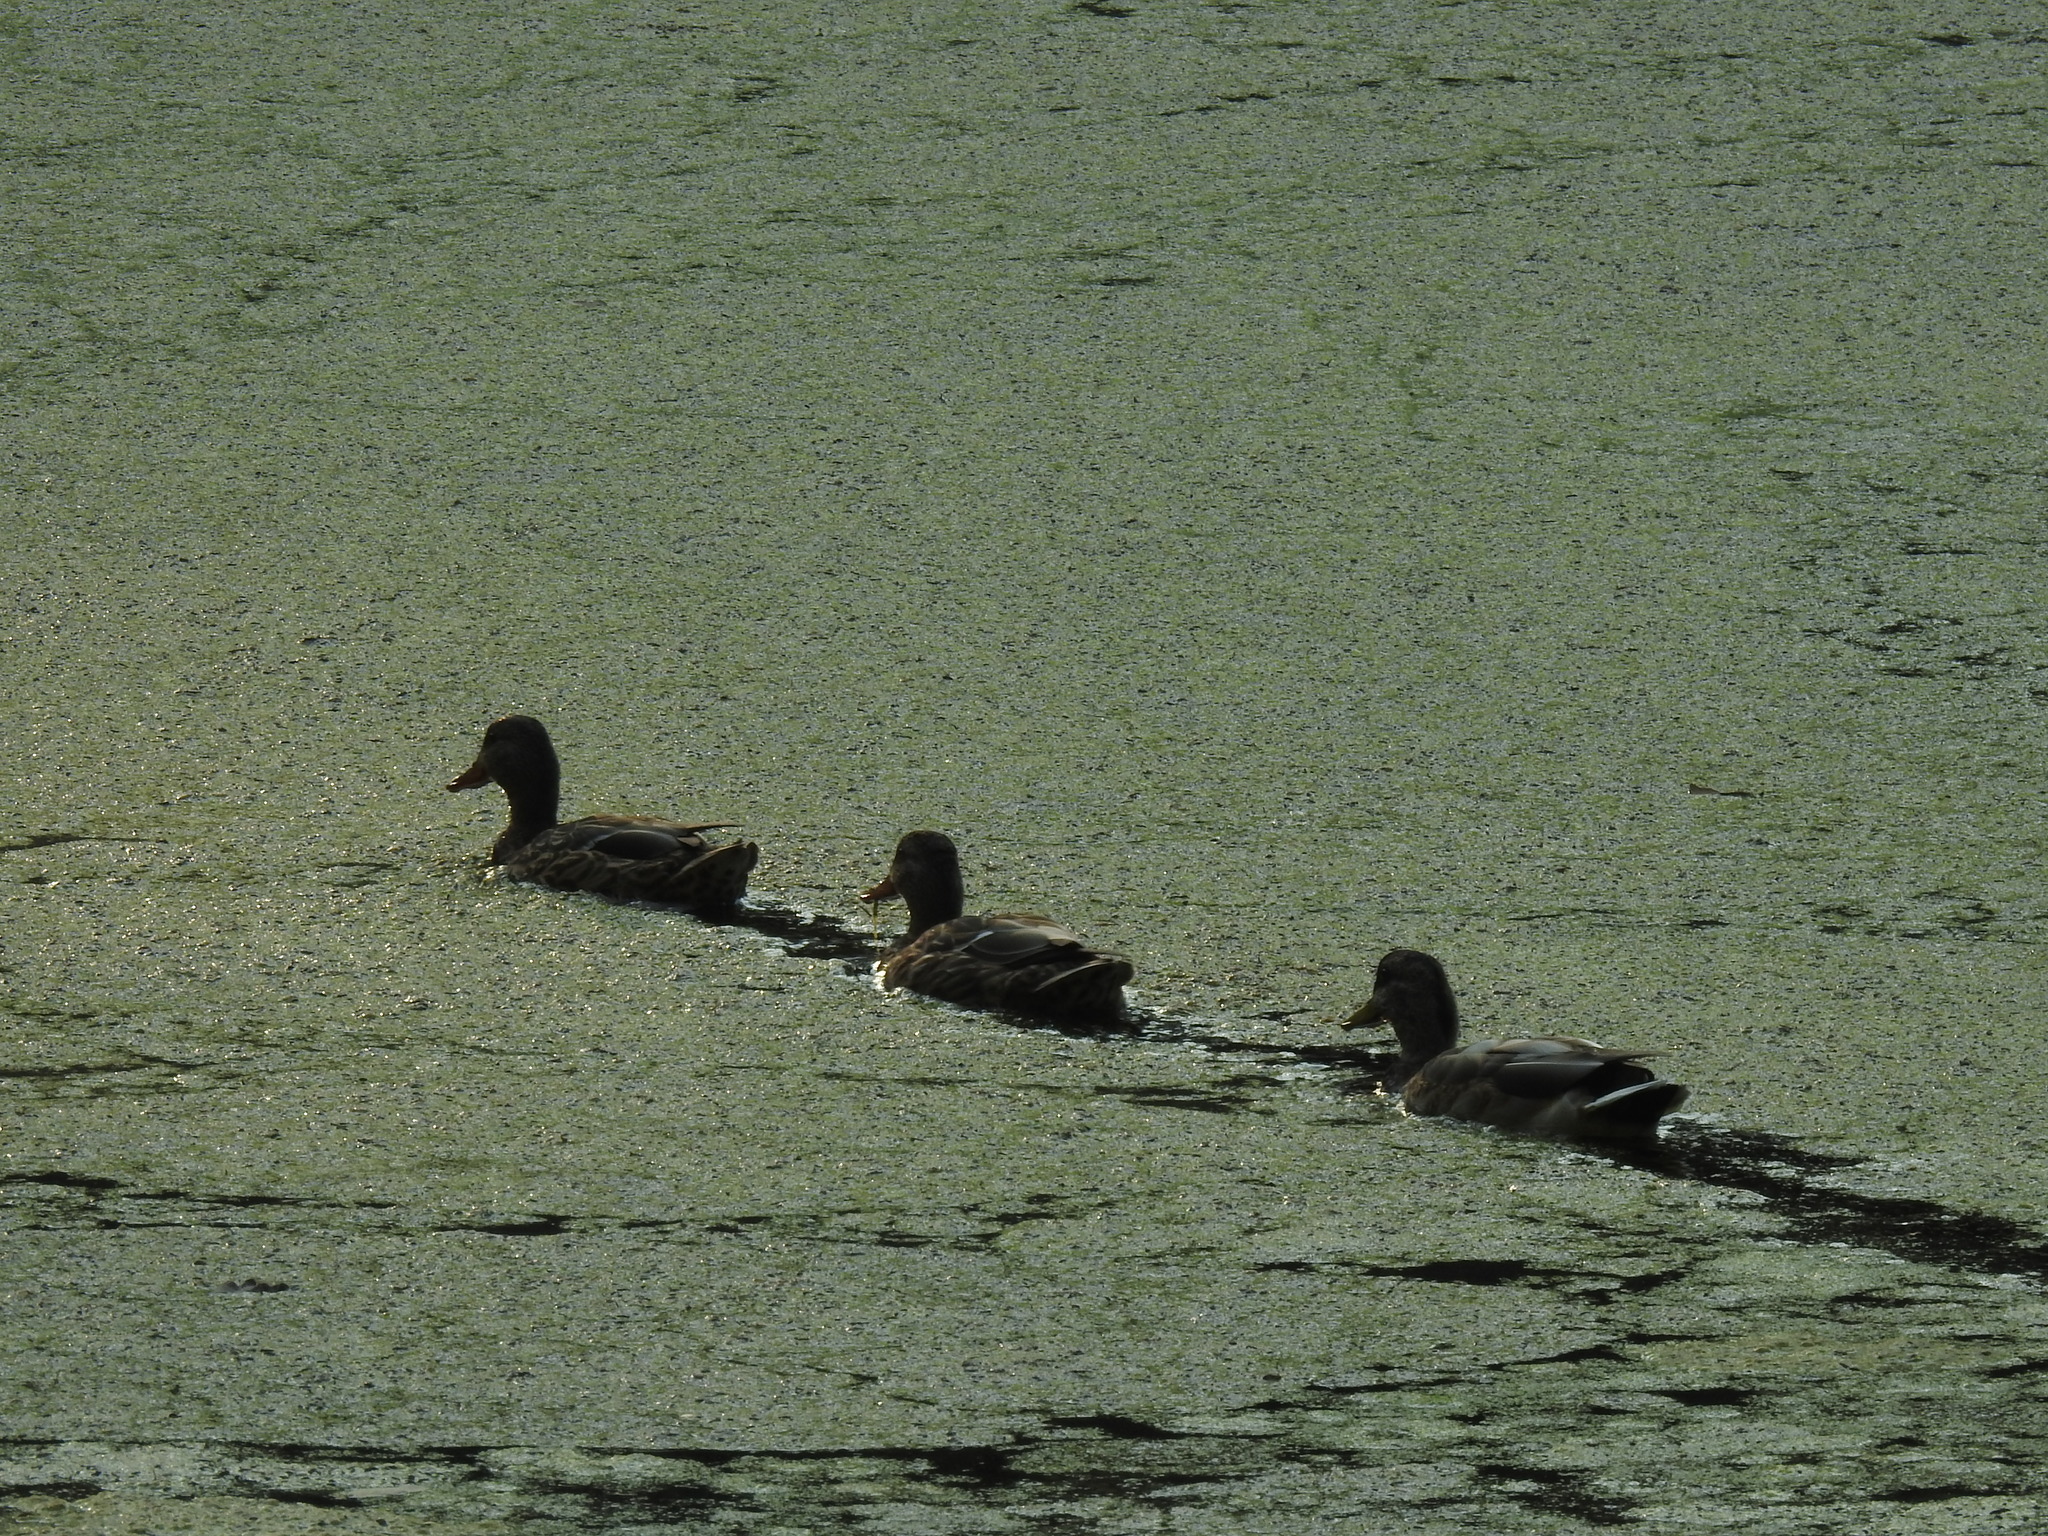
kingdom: Animalia
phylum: Chordata
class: Aves
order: Anseriformes
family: Anatidae
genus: Anas
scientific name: Anas platyrhynchos
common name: Mallard
